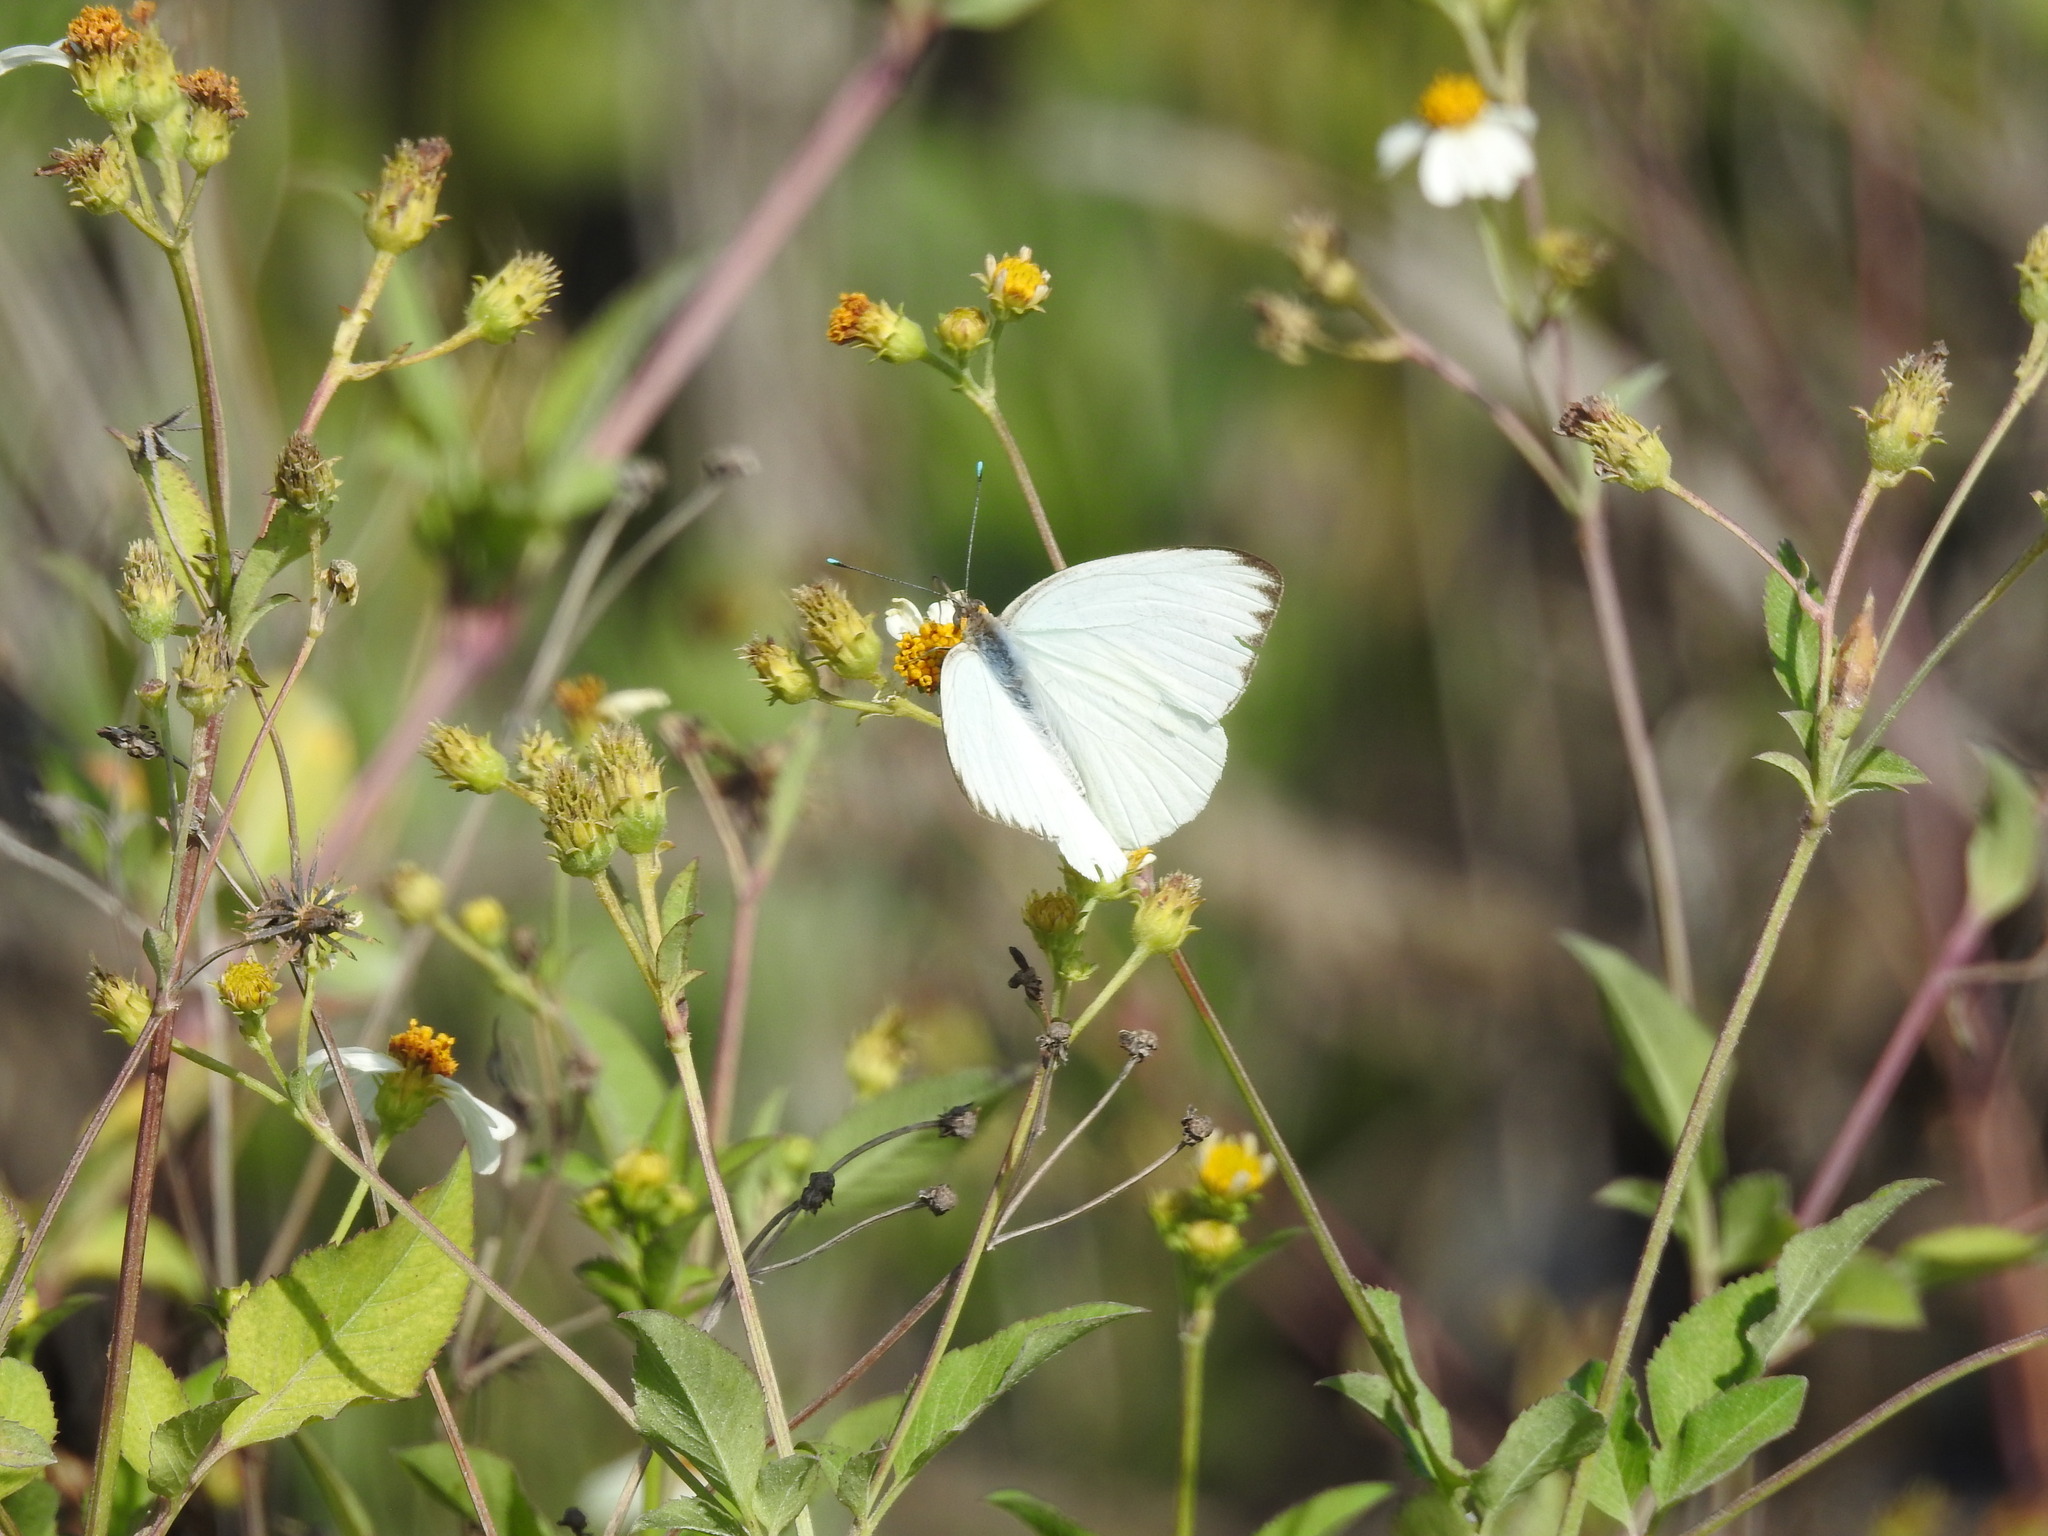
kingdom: Animalia
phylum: Arthropoda
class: Insecta
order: Lepidoptera
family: Pieridae
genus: Ascia
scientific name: Ascia monuste
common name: Great southern white
